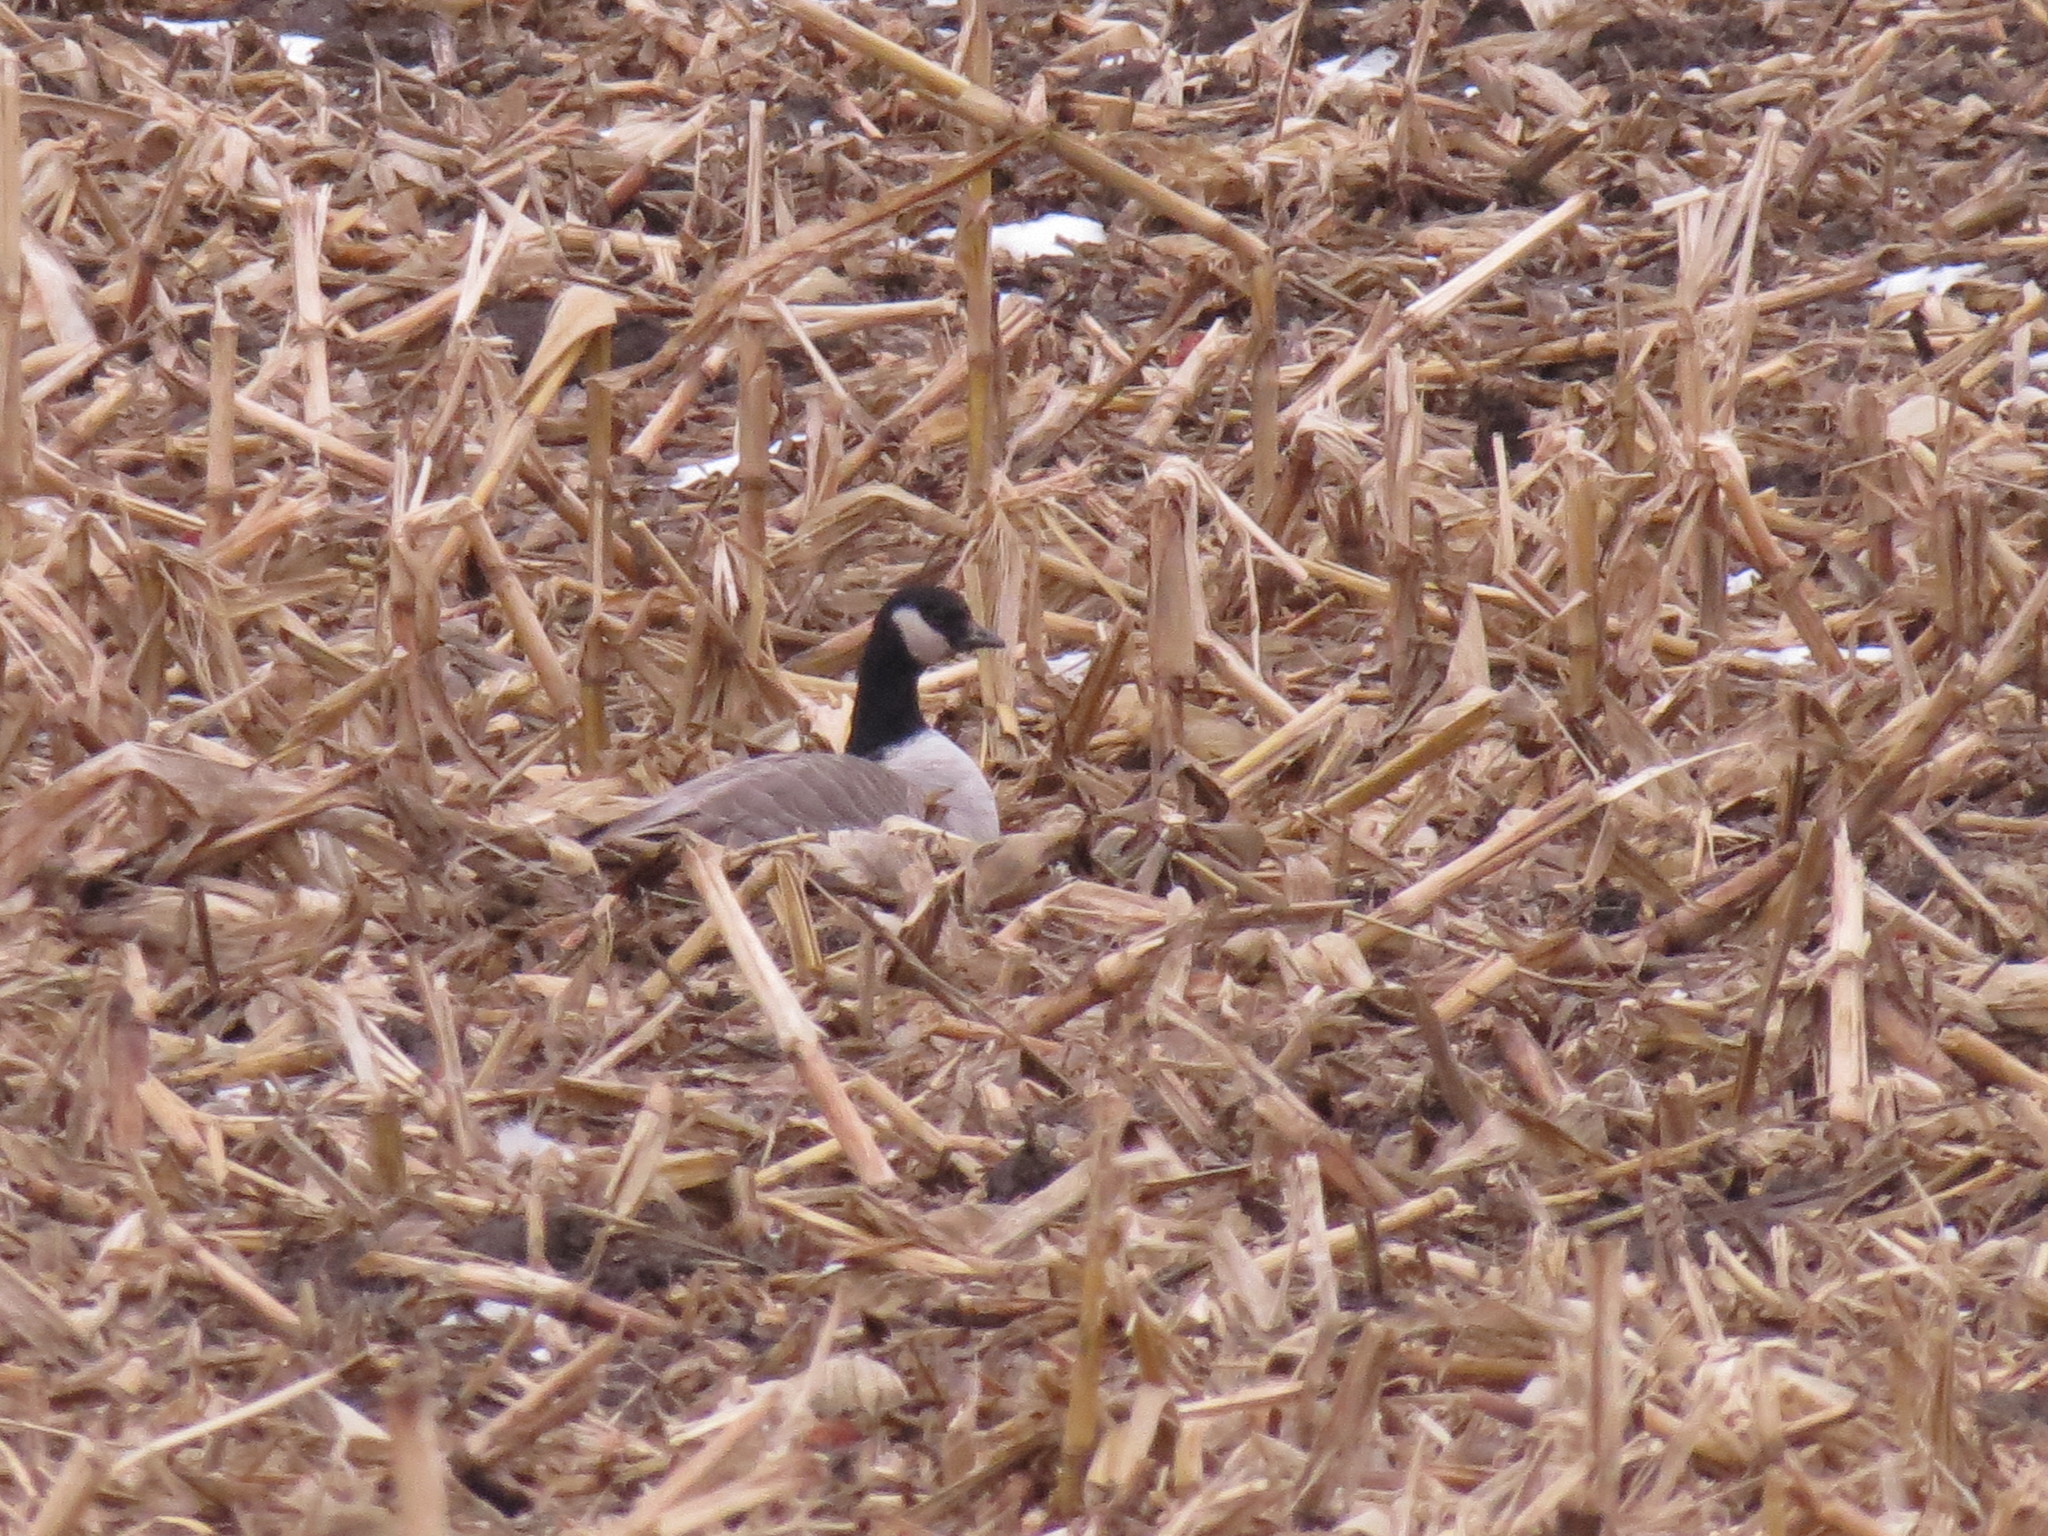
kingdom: Animalia
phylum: Chordata
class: Aves
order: Anseriformes
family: Anatidae
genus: Branta
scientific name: Branta hutchinsii
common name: Cackling goose
